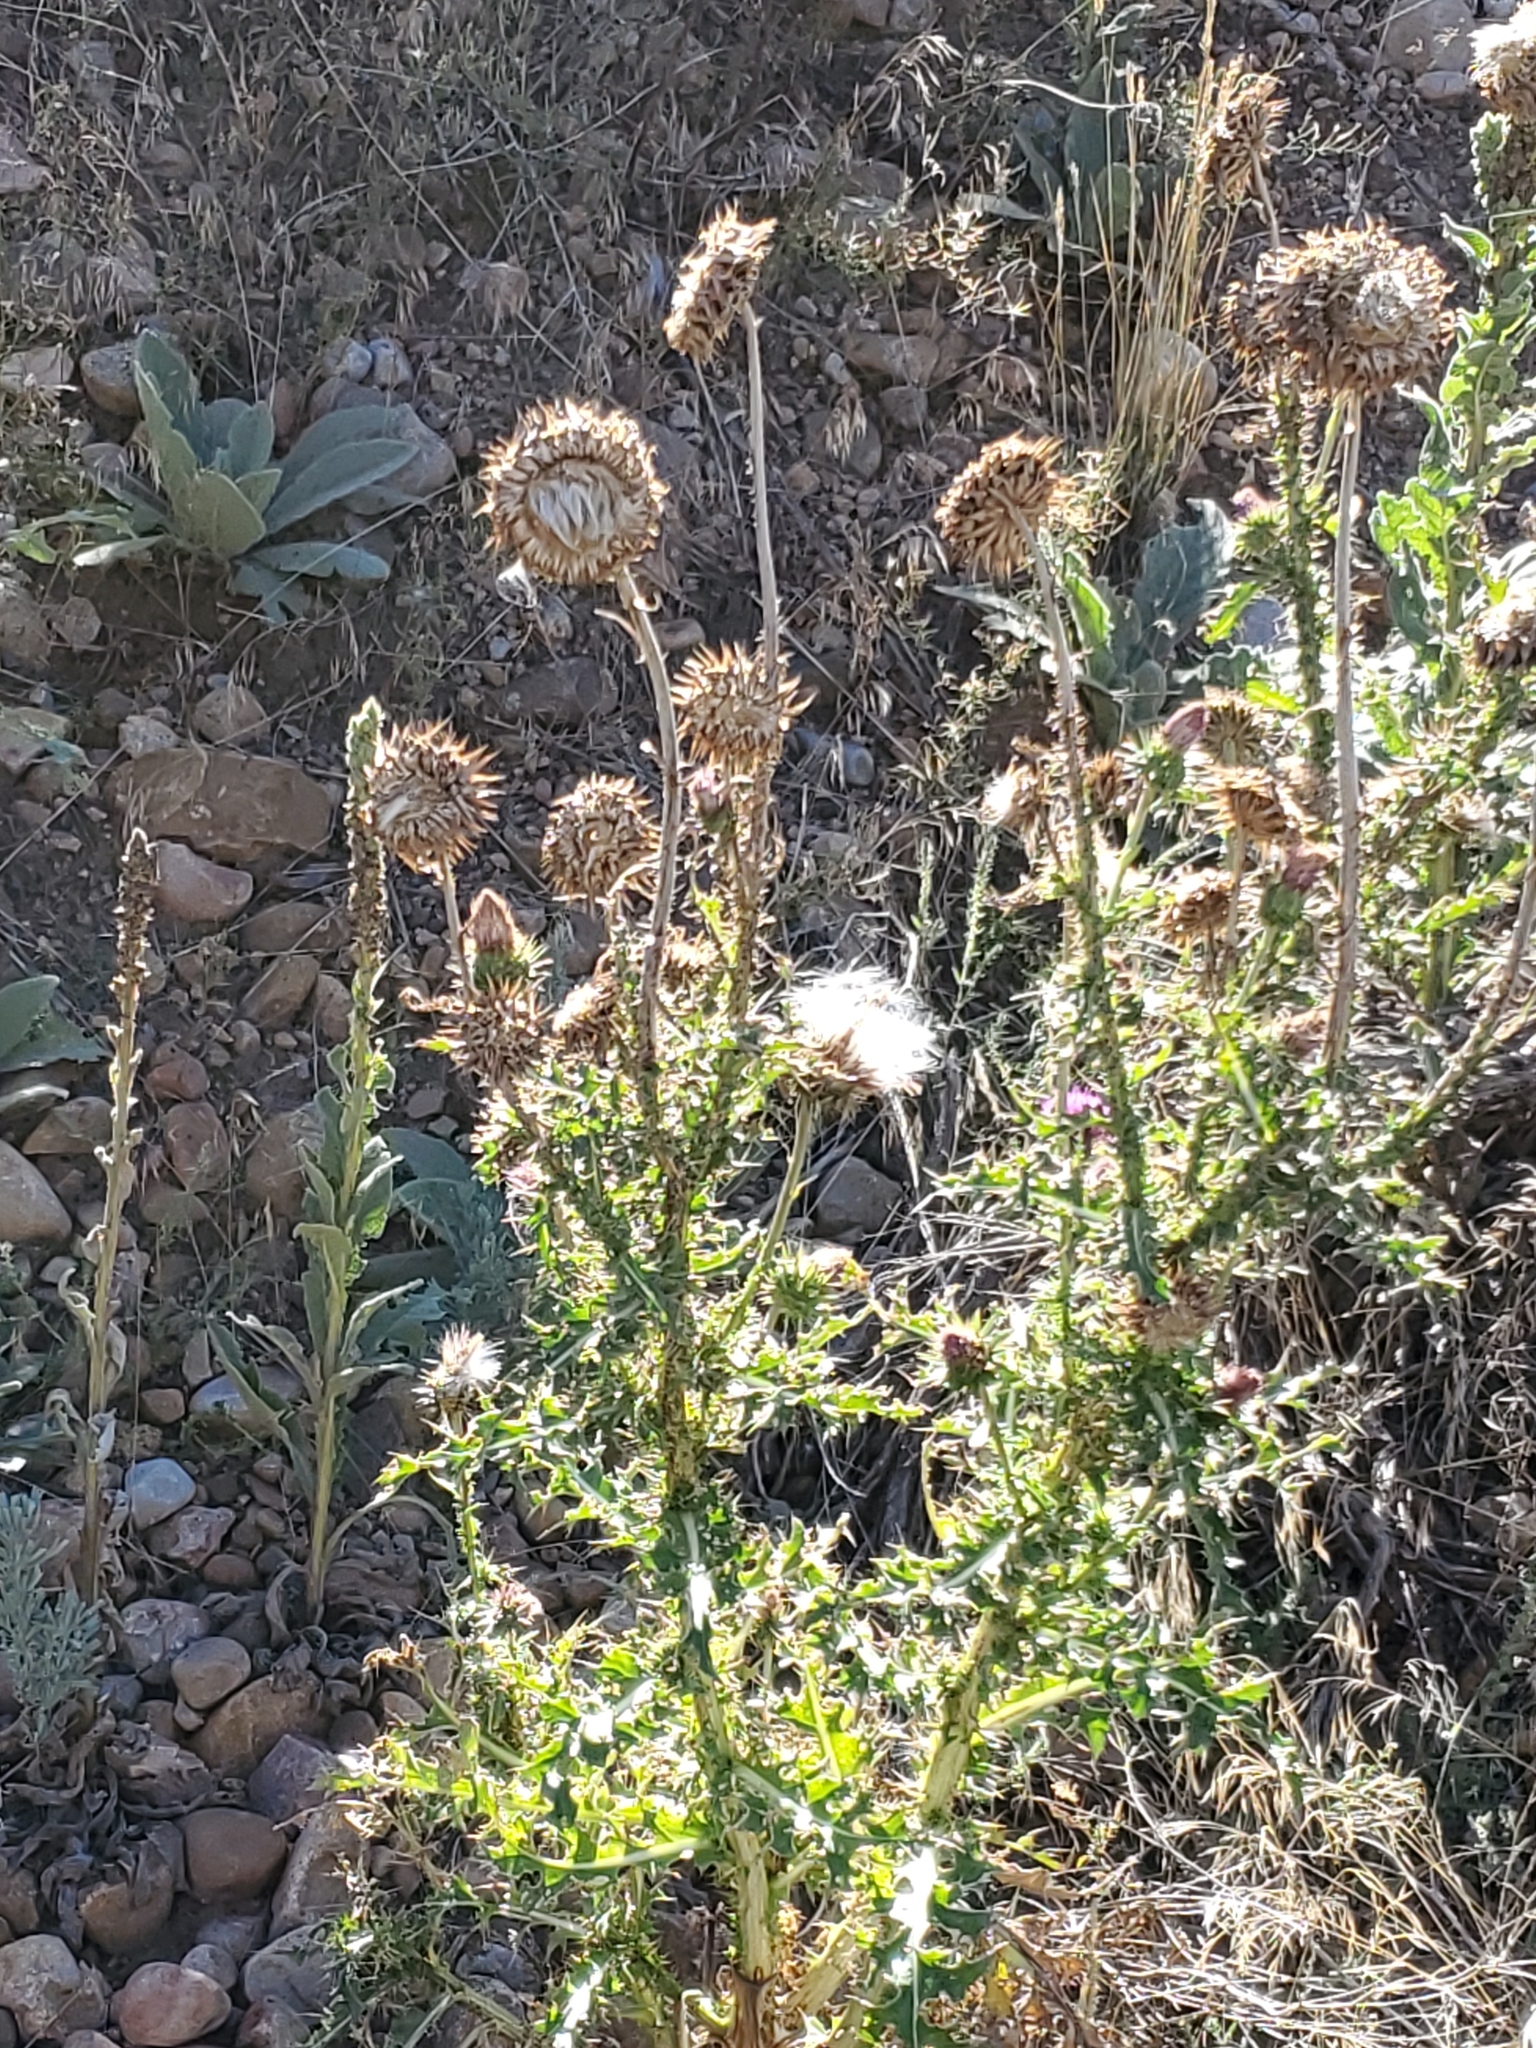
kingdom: Plantae
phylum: Tracheophyta
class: Magnoliopsida
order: Asterales
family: Asteraceae
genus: Carduus
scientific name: Carduus nutans
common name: Musk thistle
